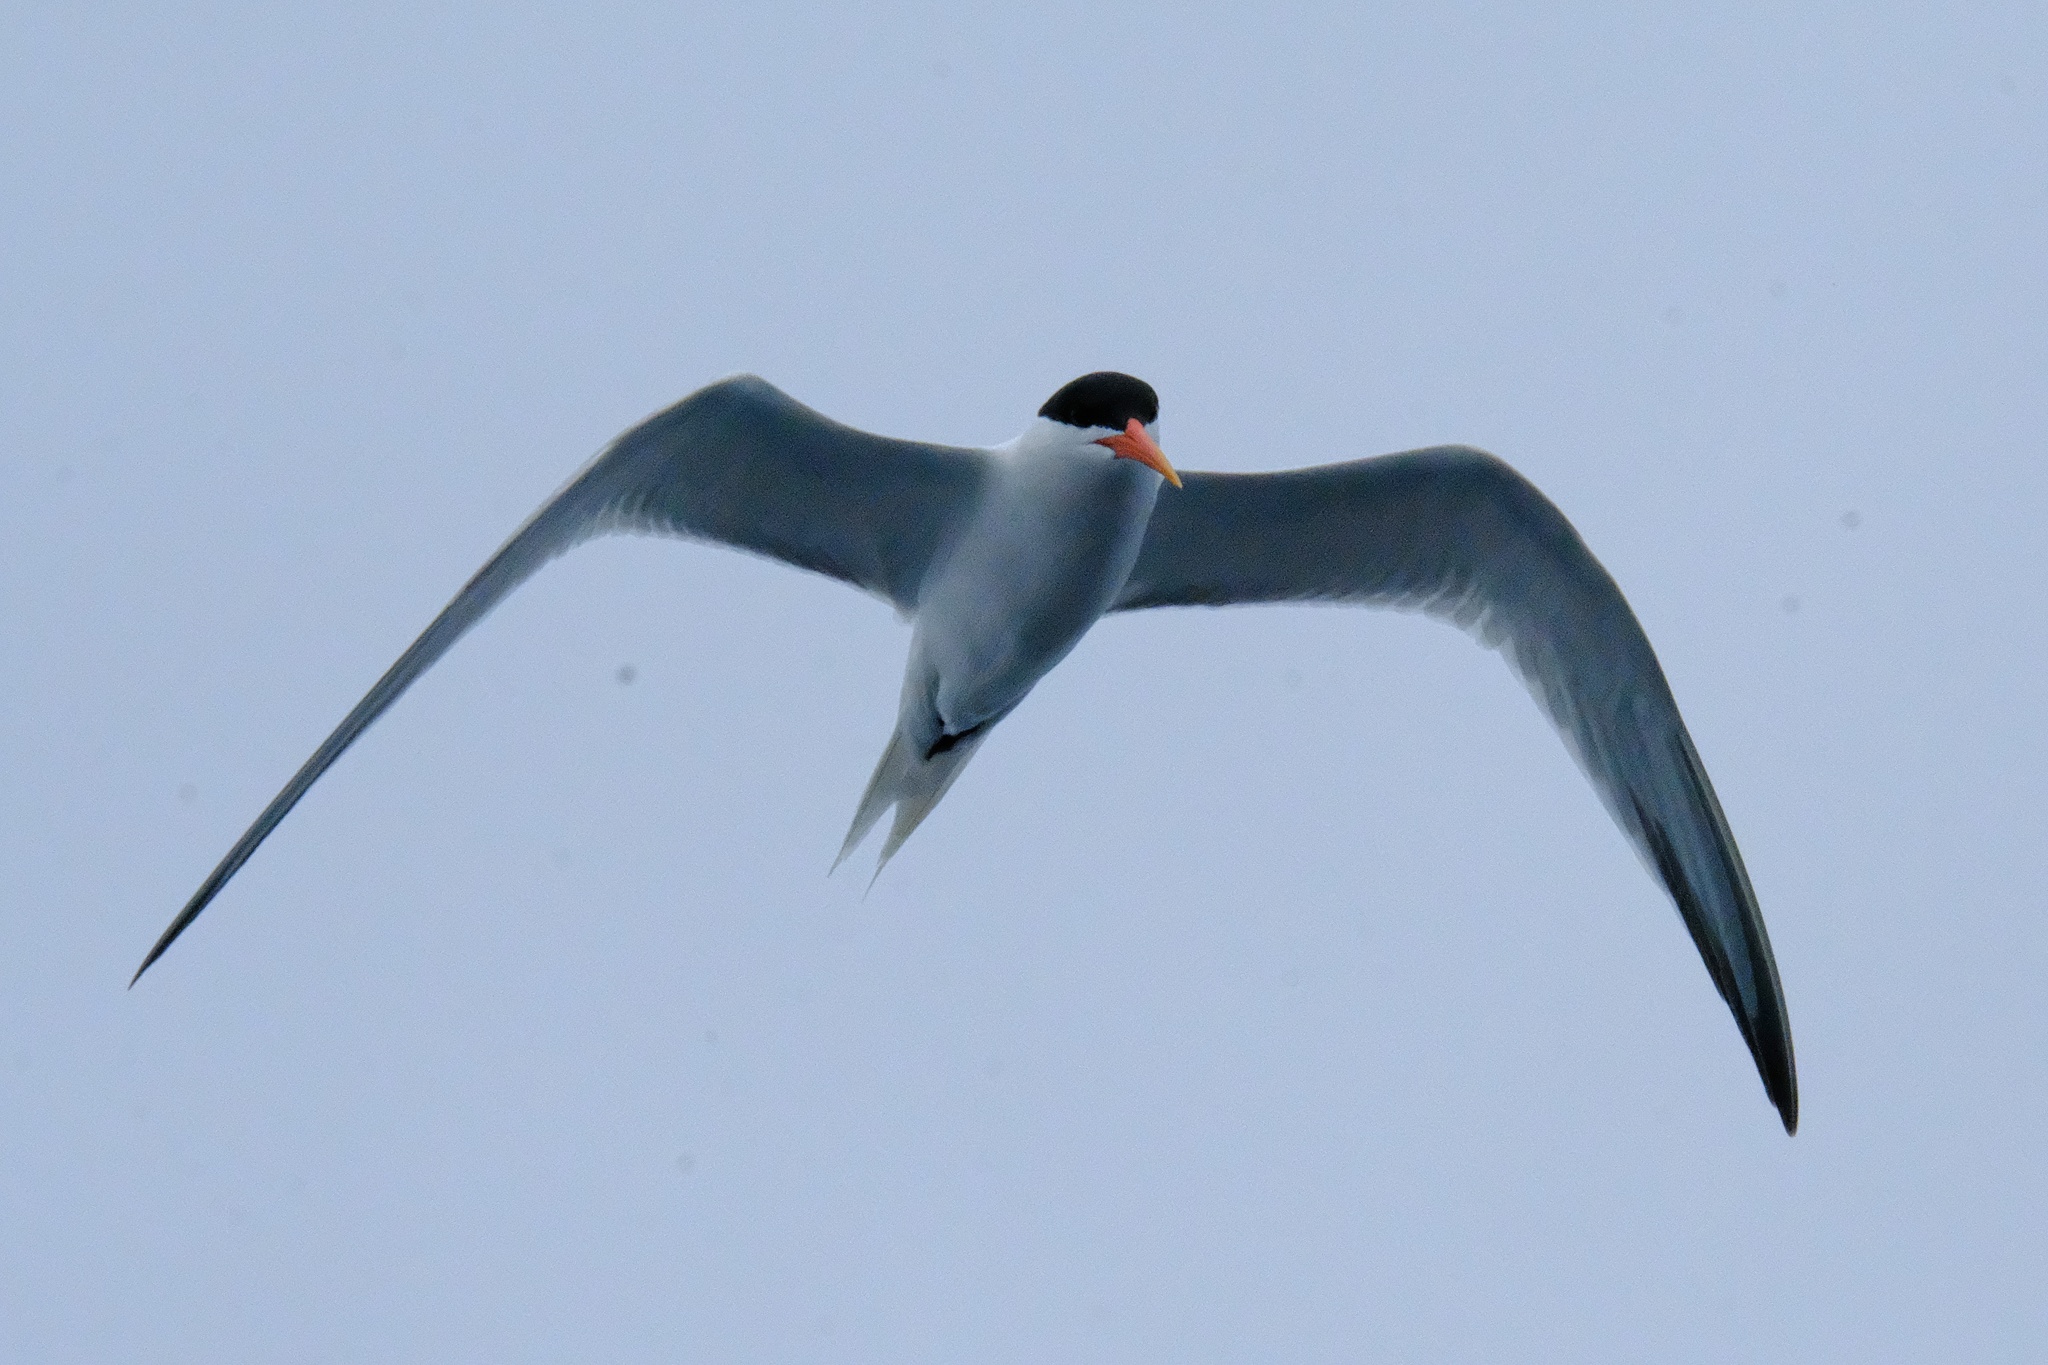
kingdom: Animalia
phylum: Chordata
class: Aves
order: Charadriiformes
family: Laridae
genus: Thalasseus
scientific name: Thalasseus elegans
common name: Elegant tern
